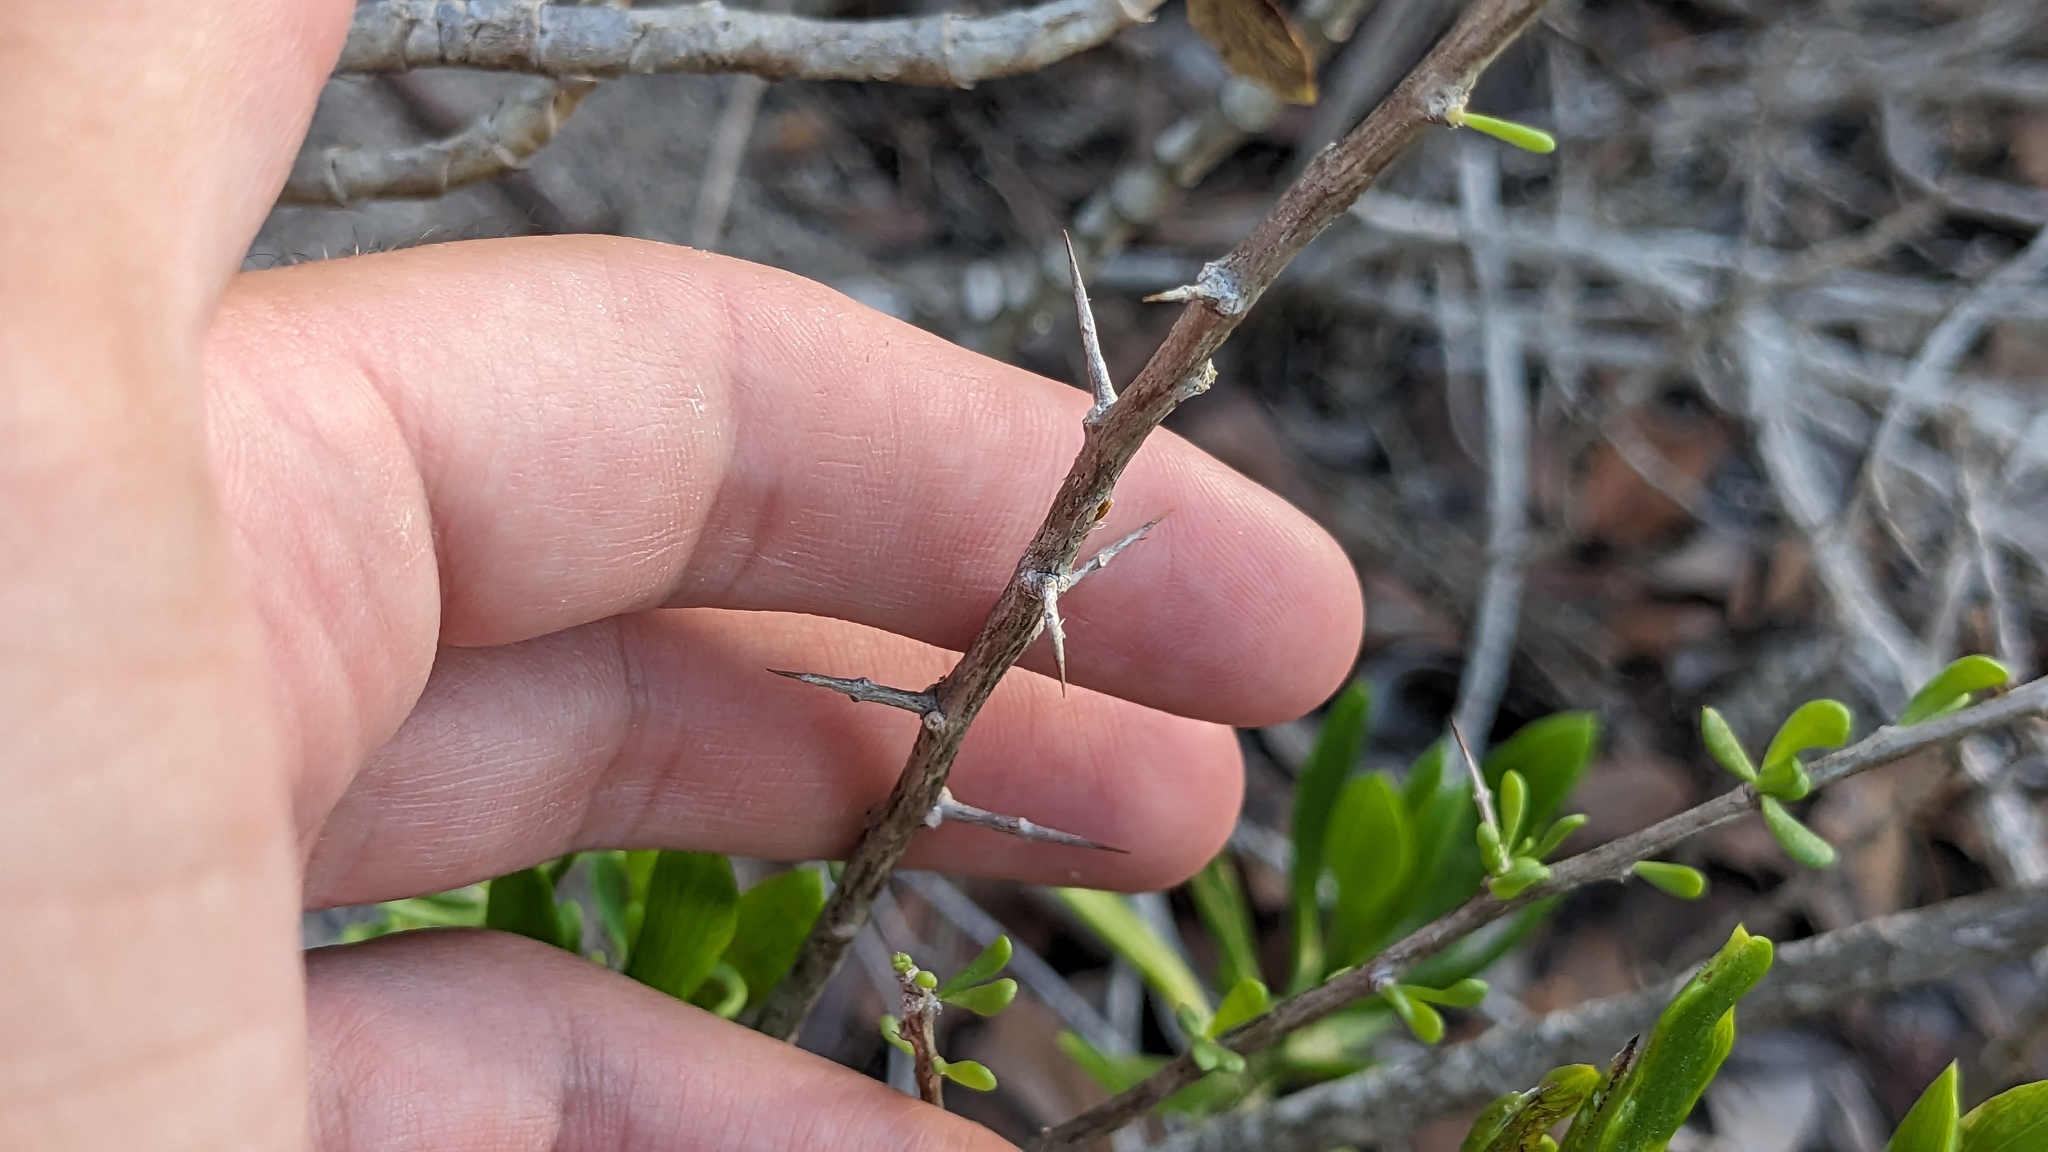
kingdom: Plantae
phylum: Tracheophyta
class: Magnoliopsida
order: Solanales
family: Solanaceae
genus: Lycium
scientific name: Lycium carolinianum
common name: Christmasberry
